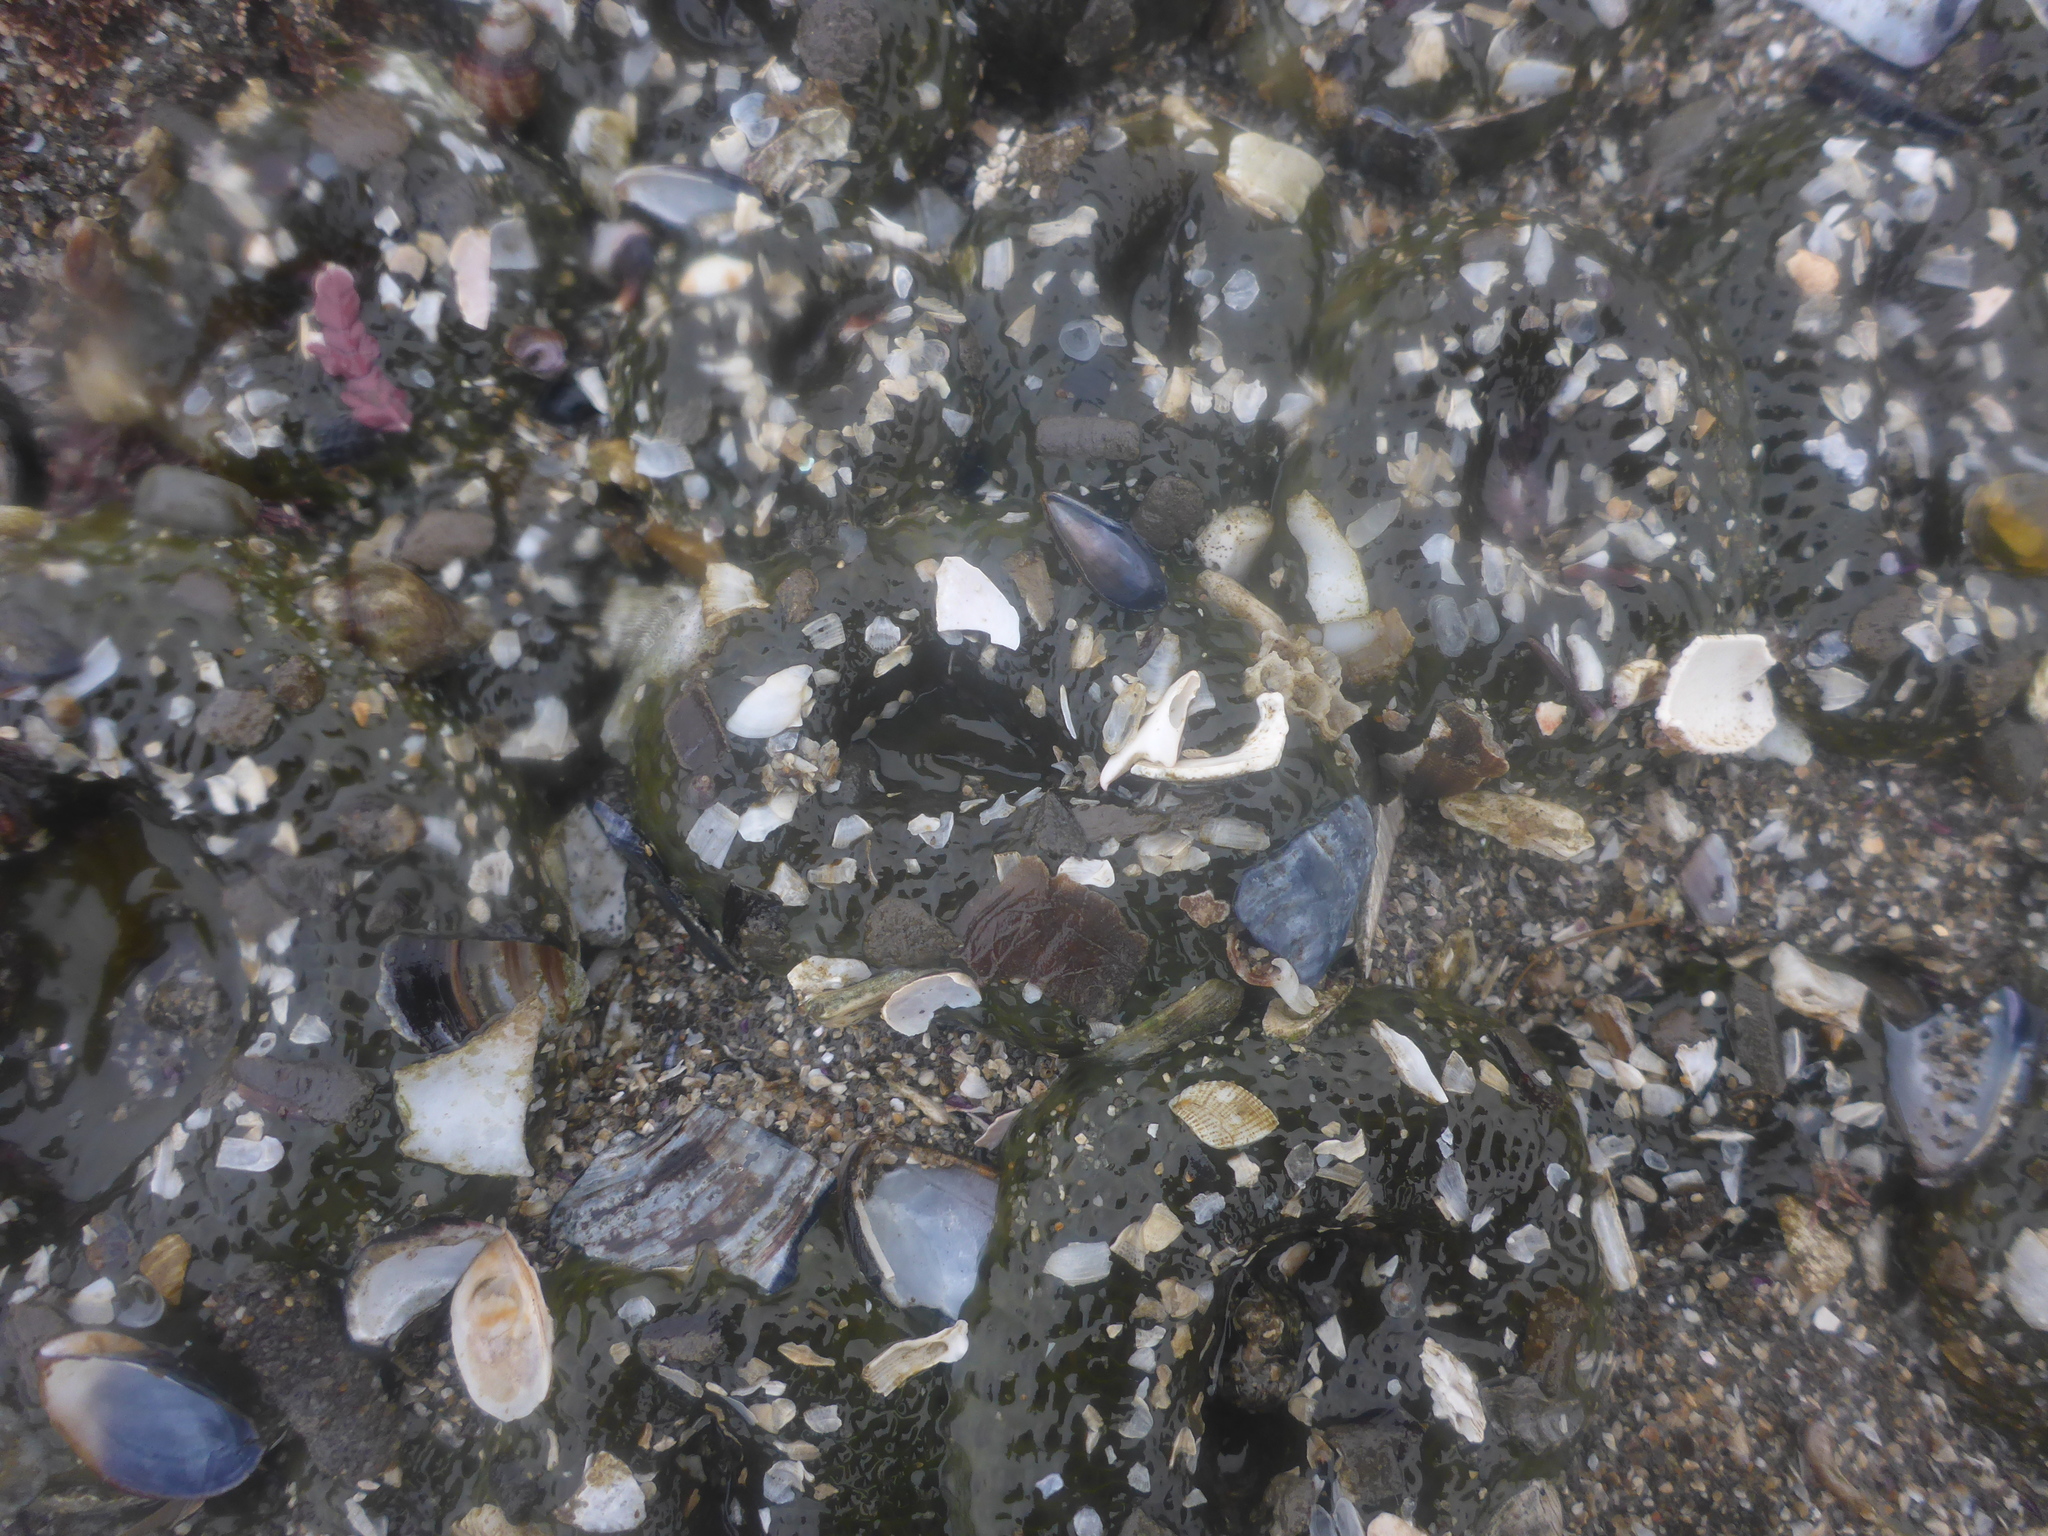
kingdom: Animalia
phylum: Cnidaria
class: Anthozoa
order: Actiniaria
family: Actiniidae
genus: Anthopleura
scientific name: Anthopleura elegantissima
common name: Clonal anemone
